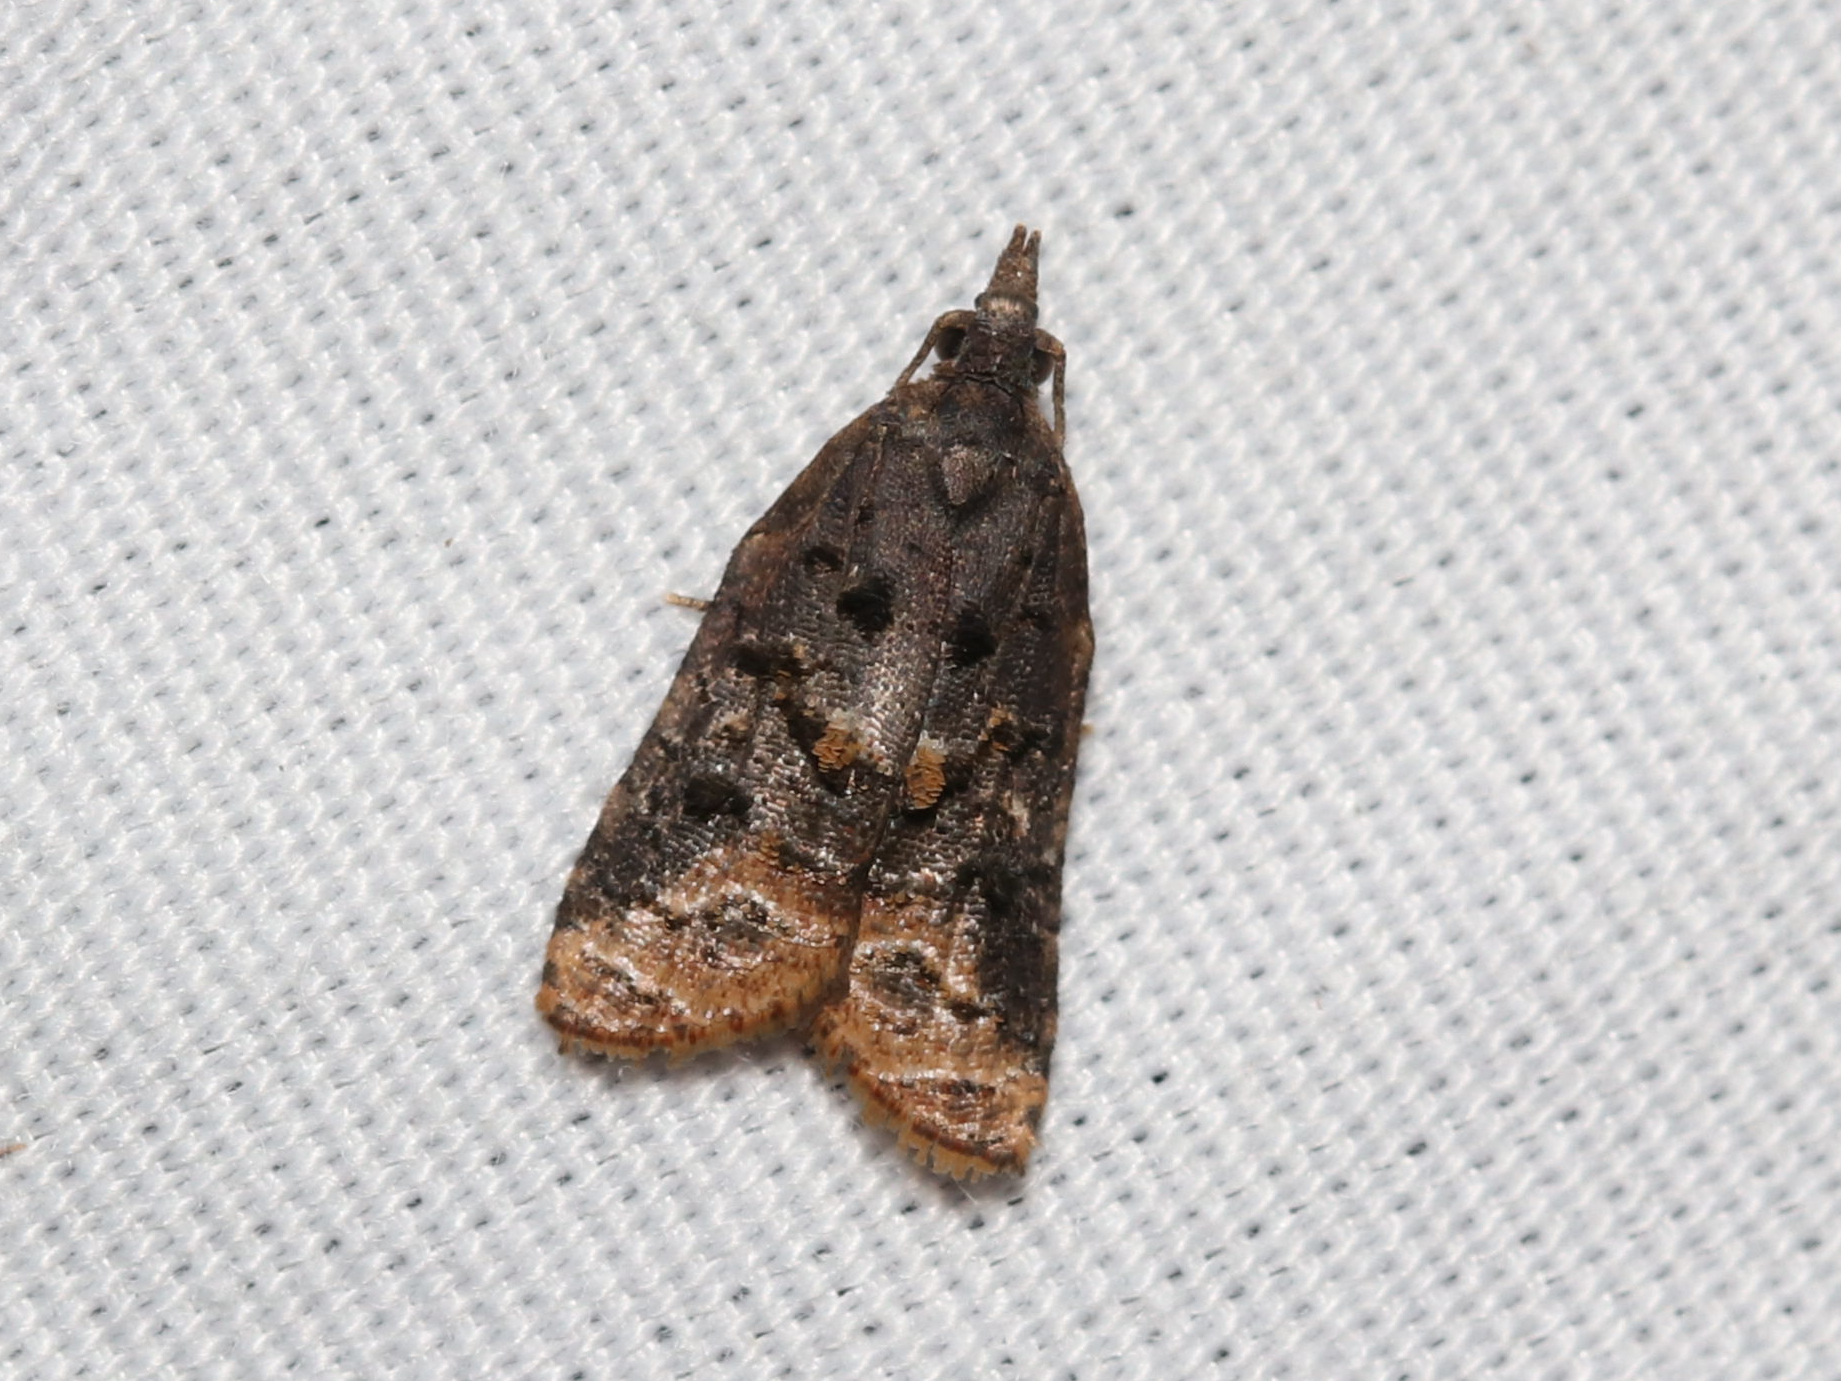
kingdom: Animalia
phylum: Arthropoda
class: Insecta
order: Lepidoptera
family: Tortricidae
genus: Platynota
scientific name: Platynota semiustana
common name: Singed platynota
